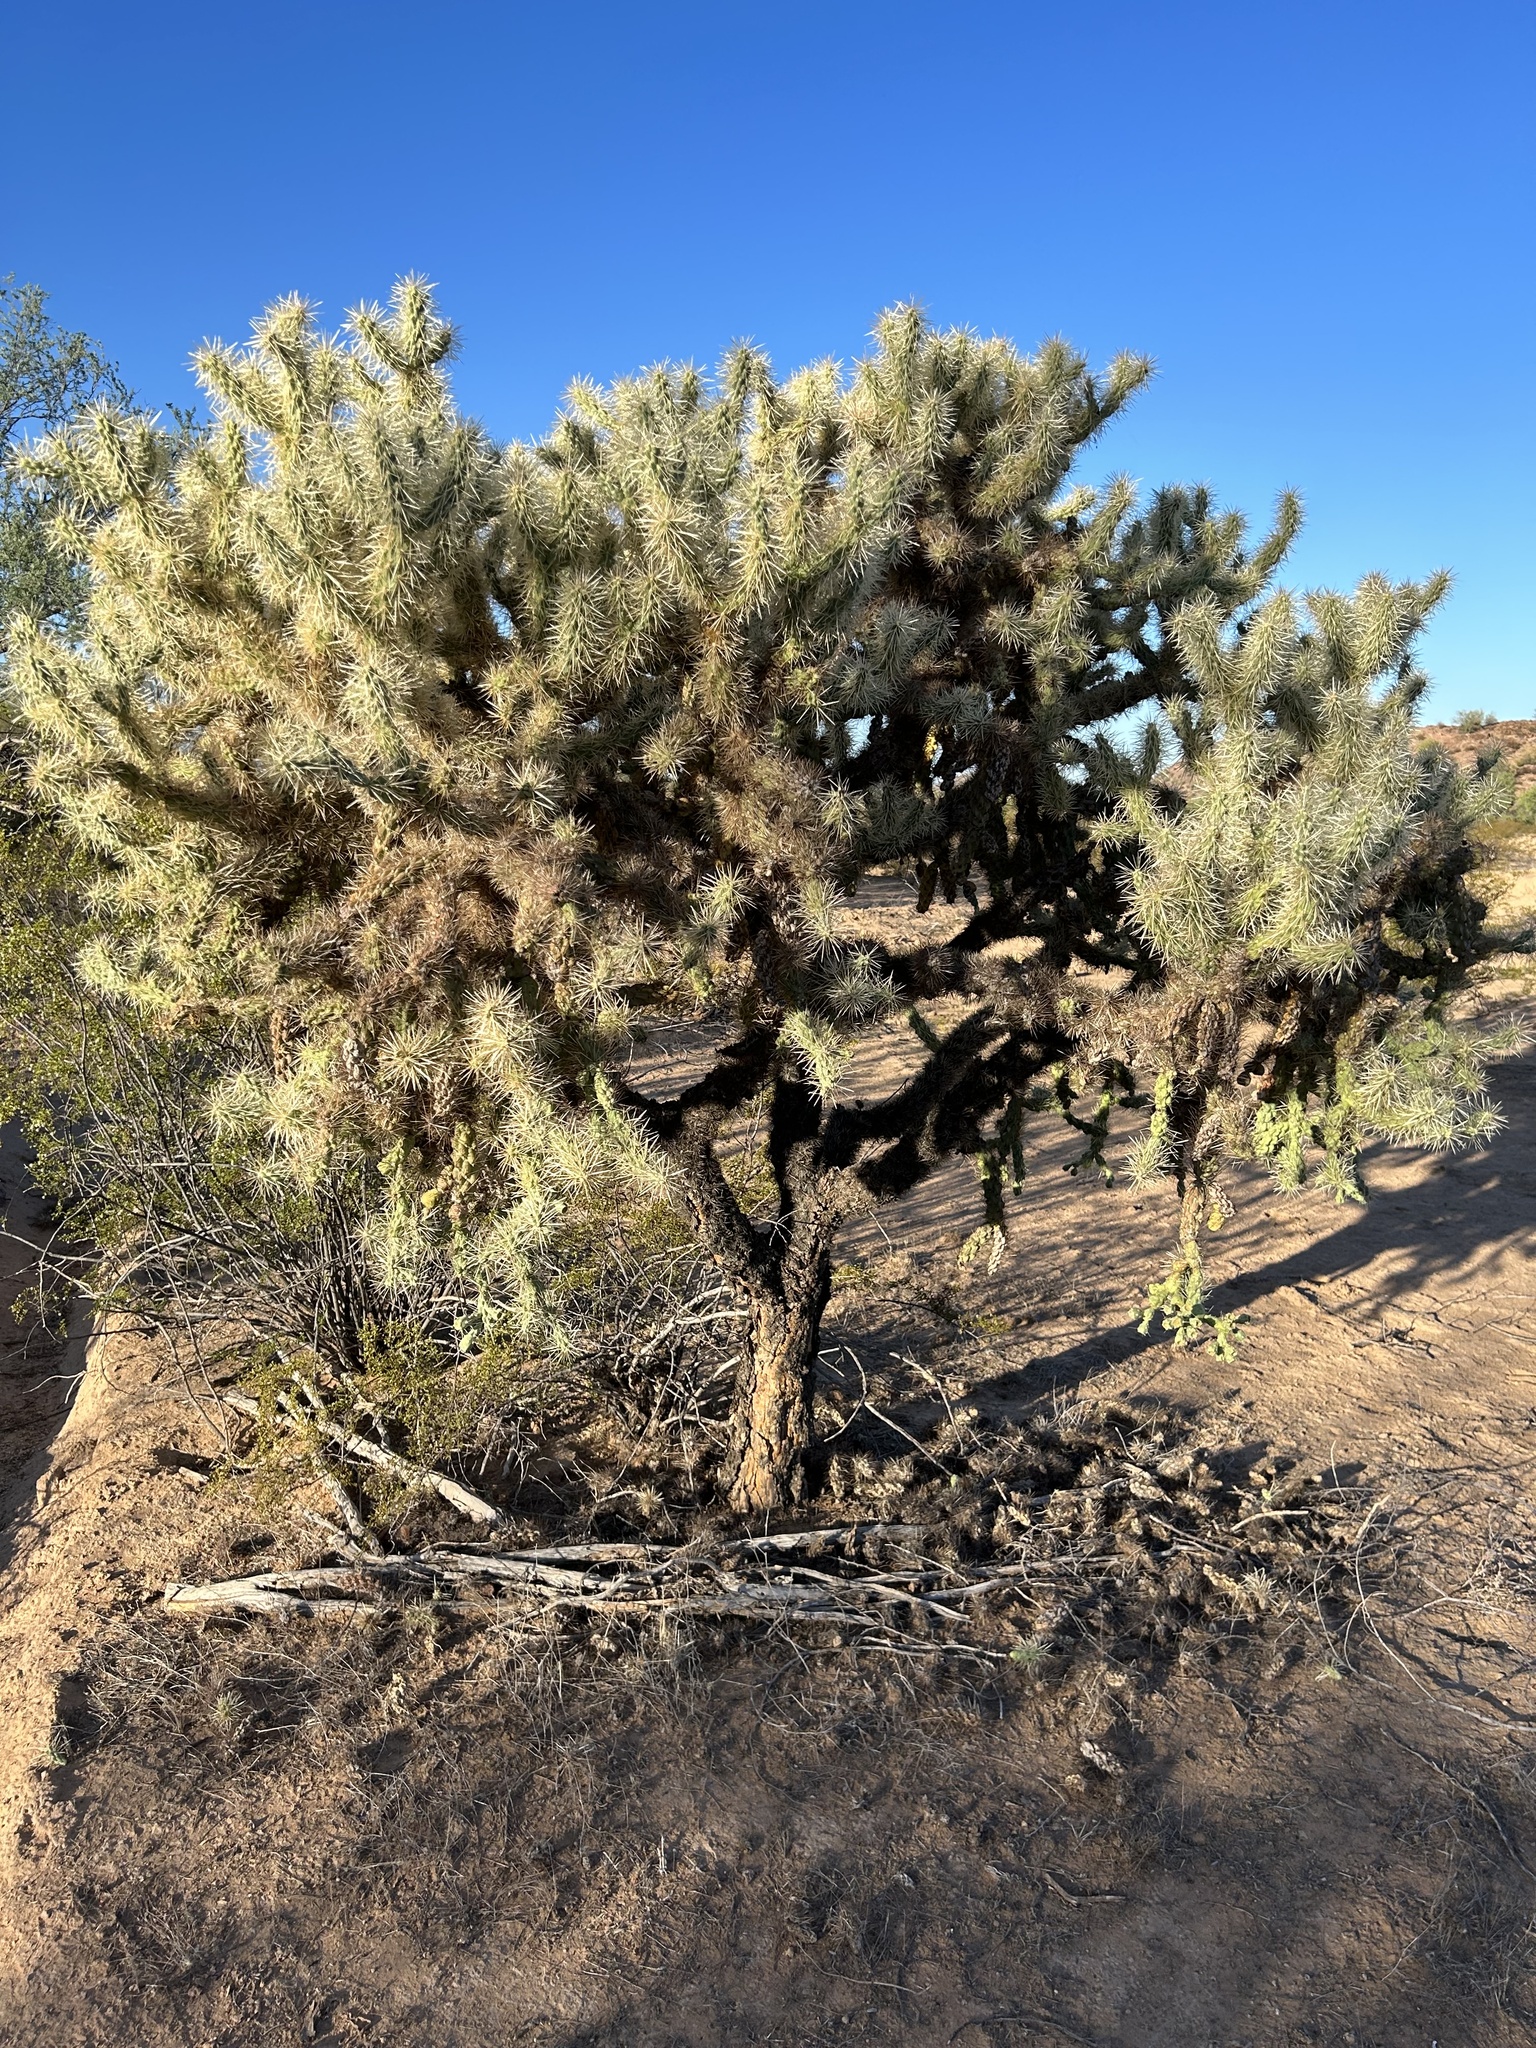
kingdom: Plantae
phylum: Tracheophyta
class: Magnoliopsida
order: Caryophyllales
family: Cactaceae
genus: Cylindropuntia
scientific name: Cylindropuntia fulgida
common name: Jumping cholla
